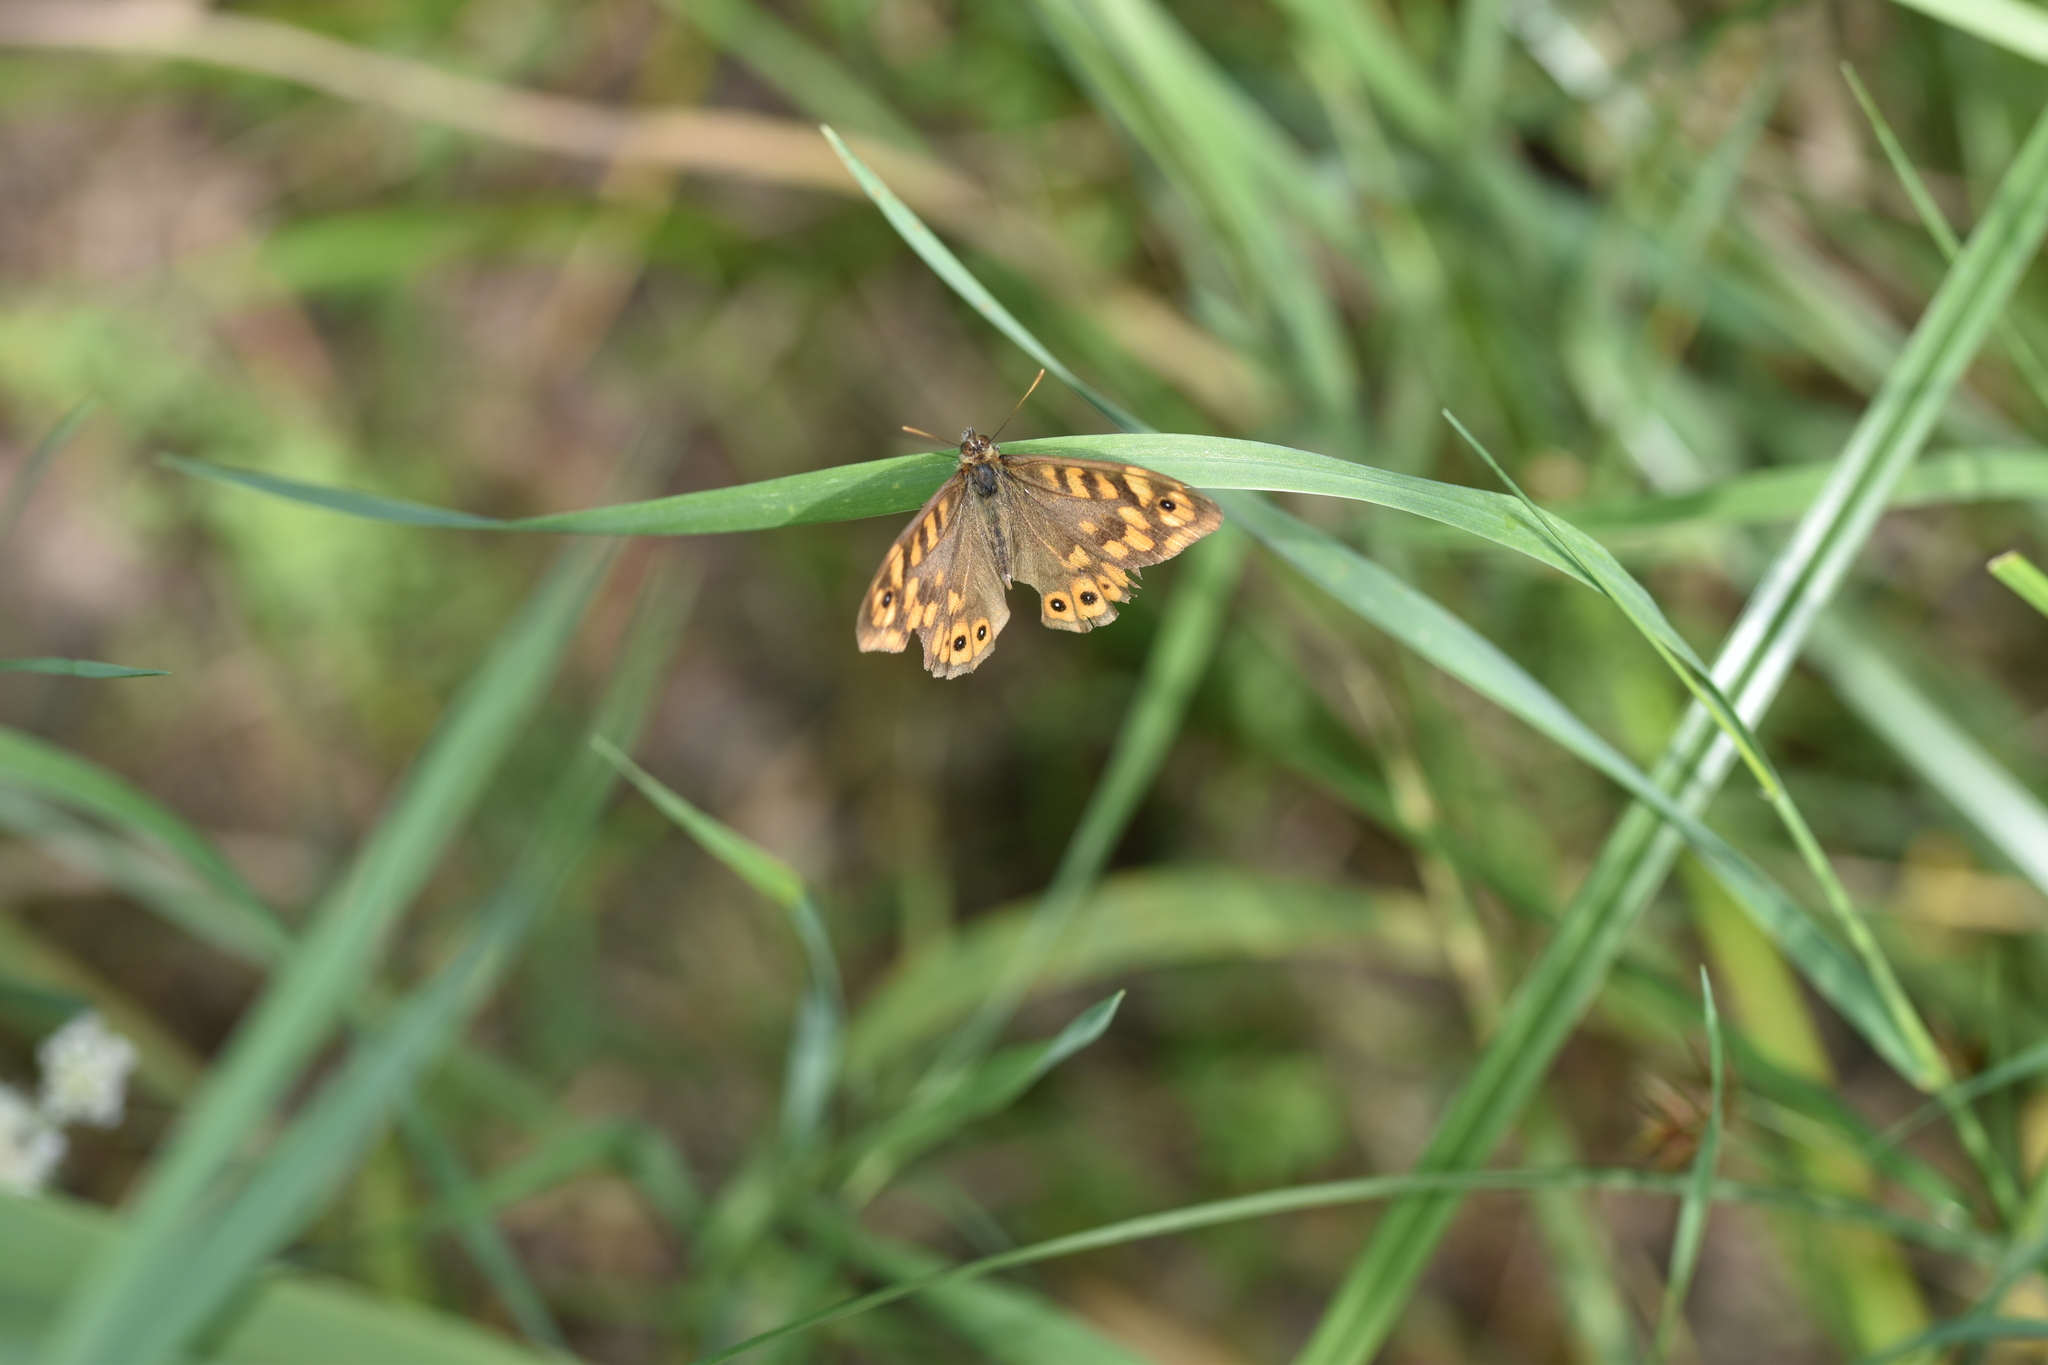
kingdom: Animalia
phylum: Arthropoda
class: Insecta
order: Lepidoptera
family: Nymphalidae
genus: Pararge
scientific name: Pararge aegeria
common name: Speckled wood
